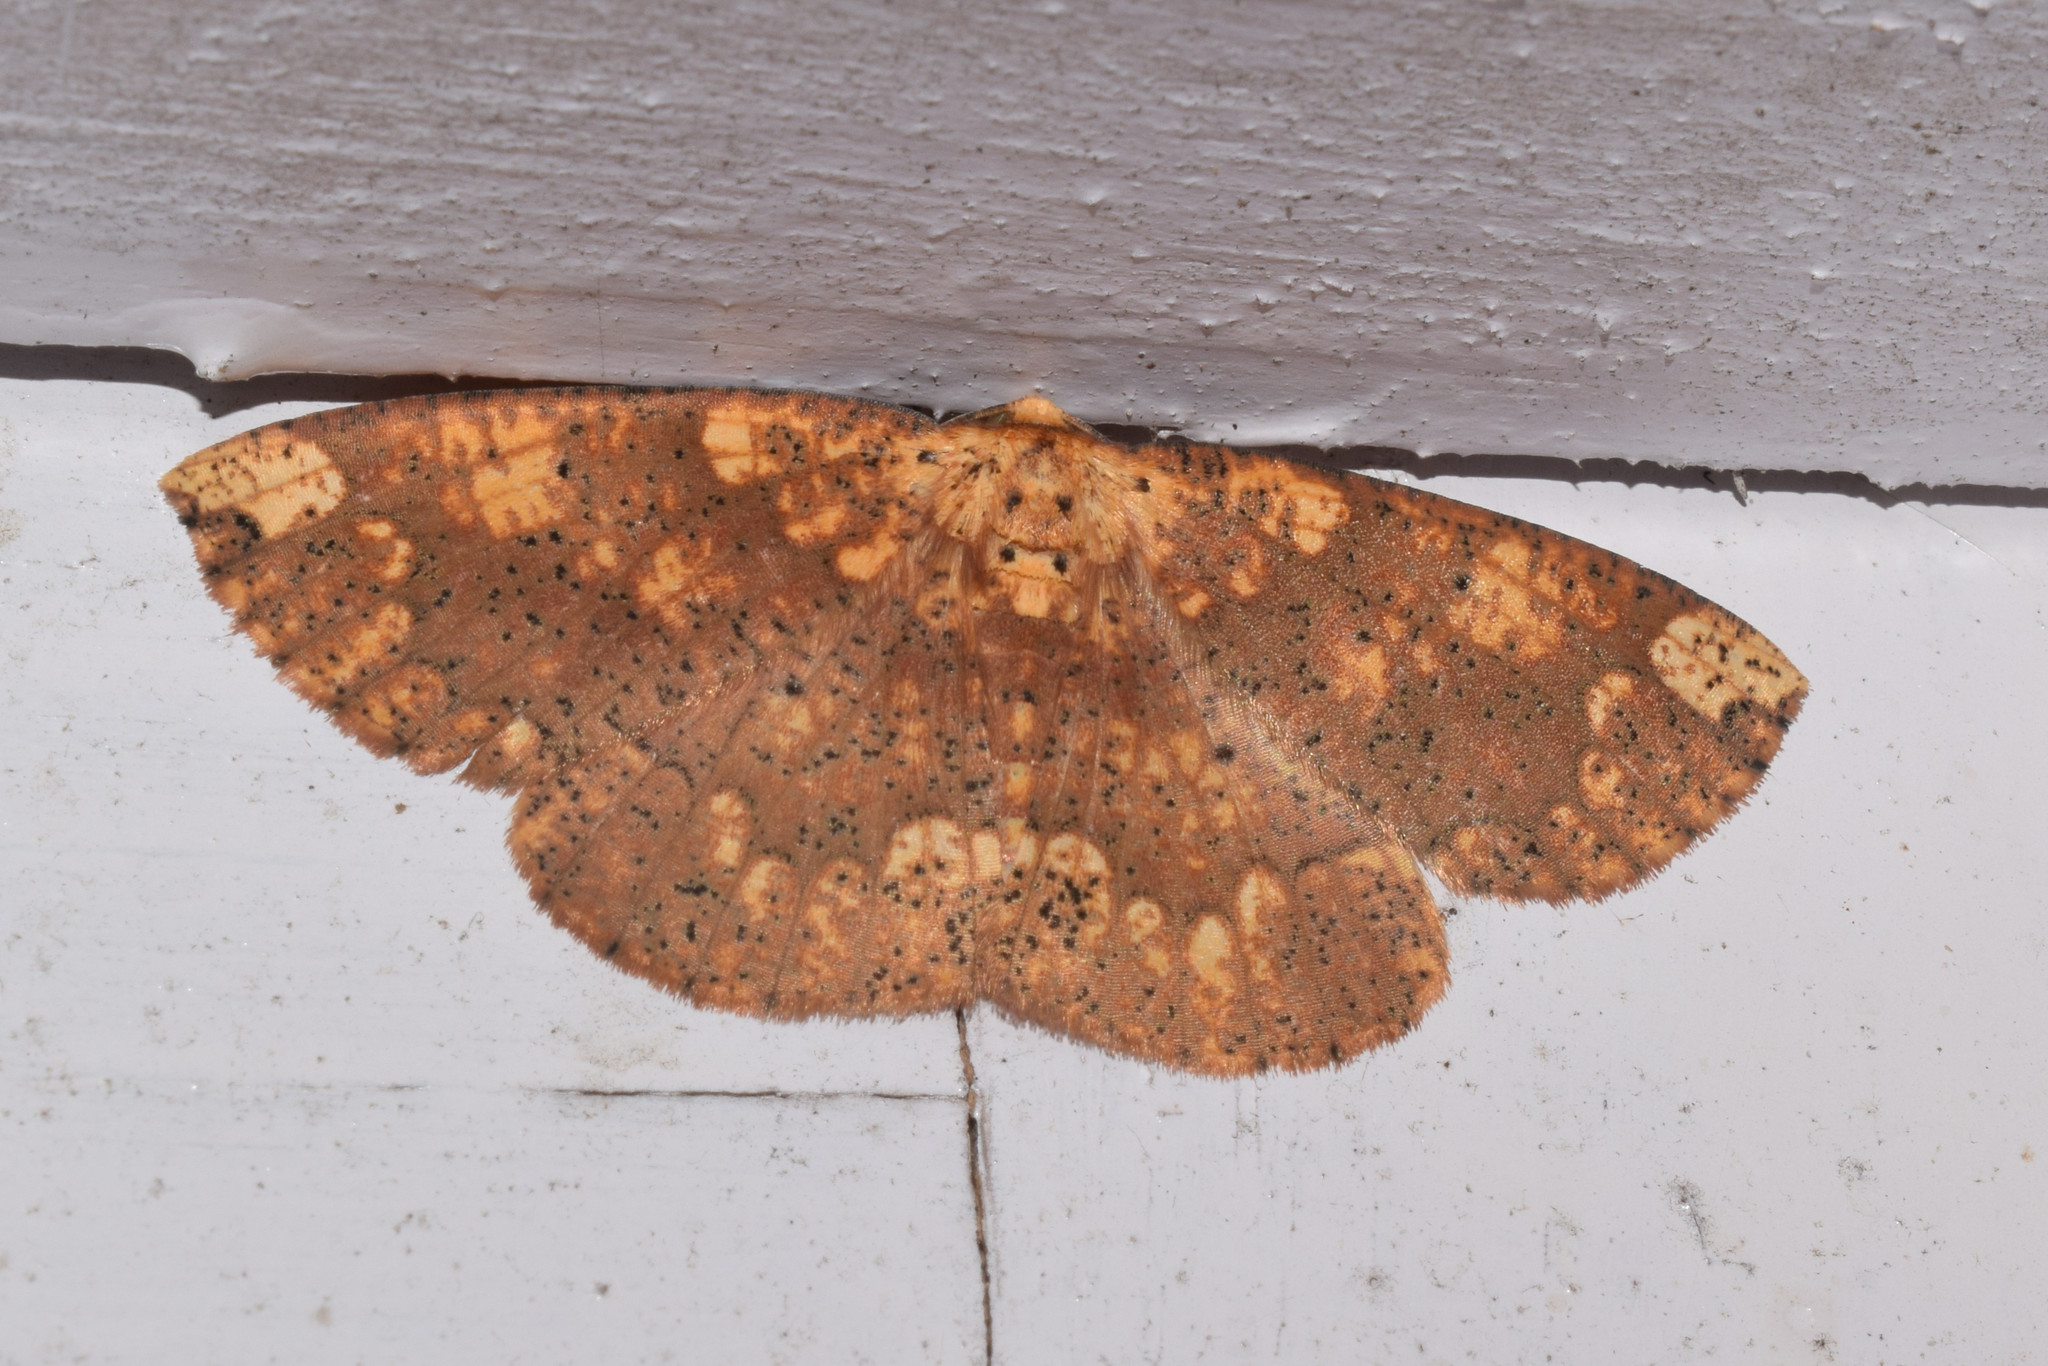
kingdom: Animalia
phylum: Arthropoda
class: Insecta
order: Lepidoptera
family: Geometridae
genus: Heterostegania
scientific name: Heterostegania lunulosa
